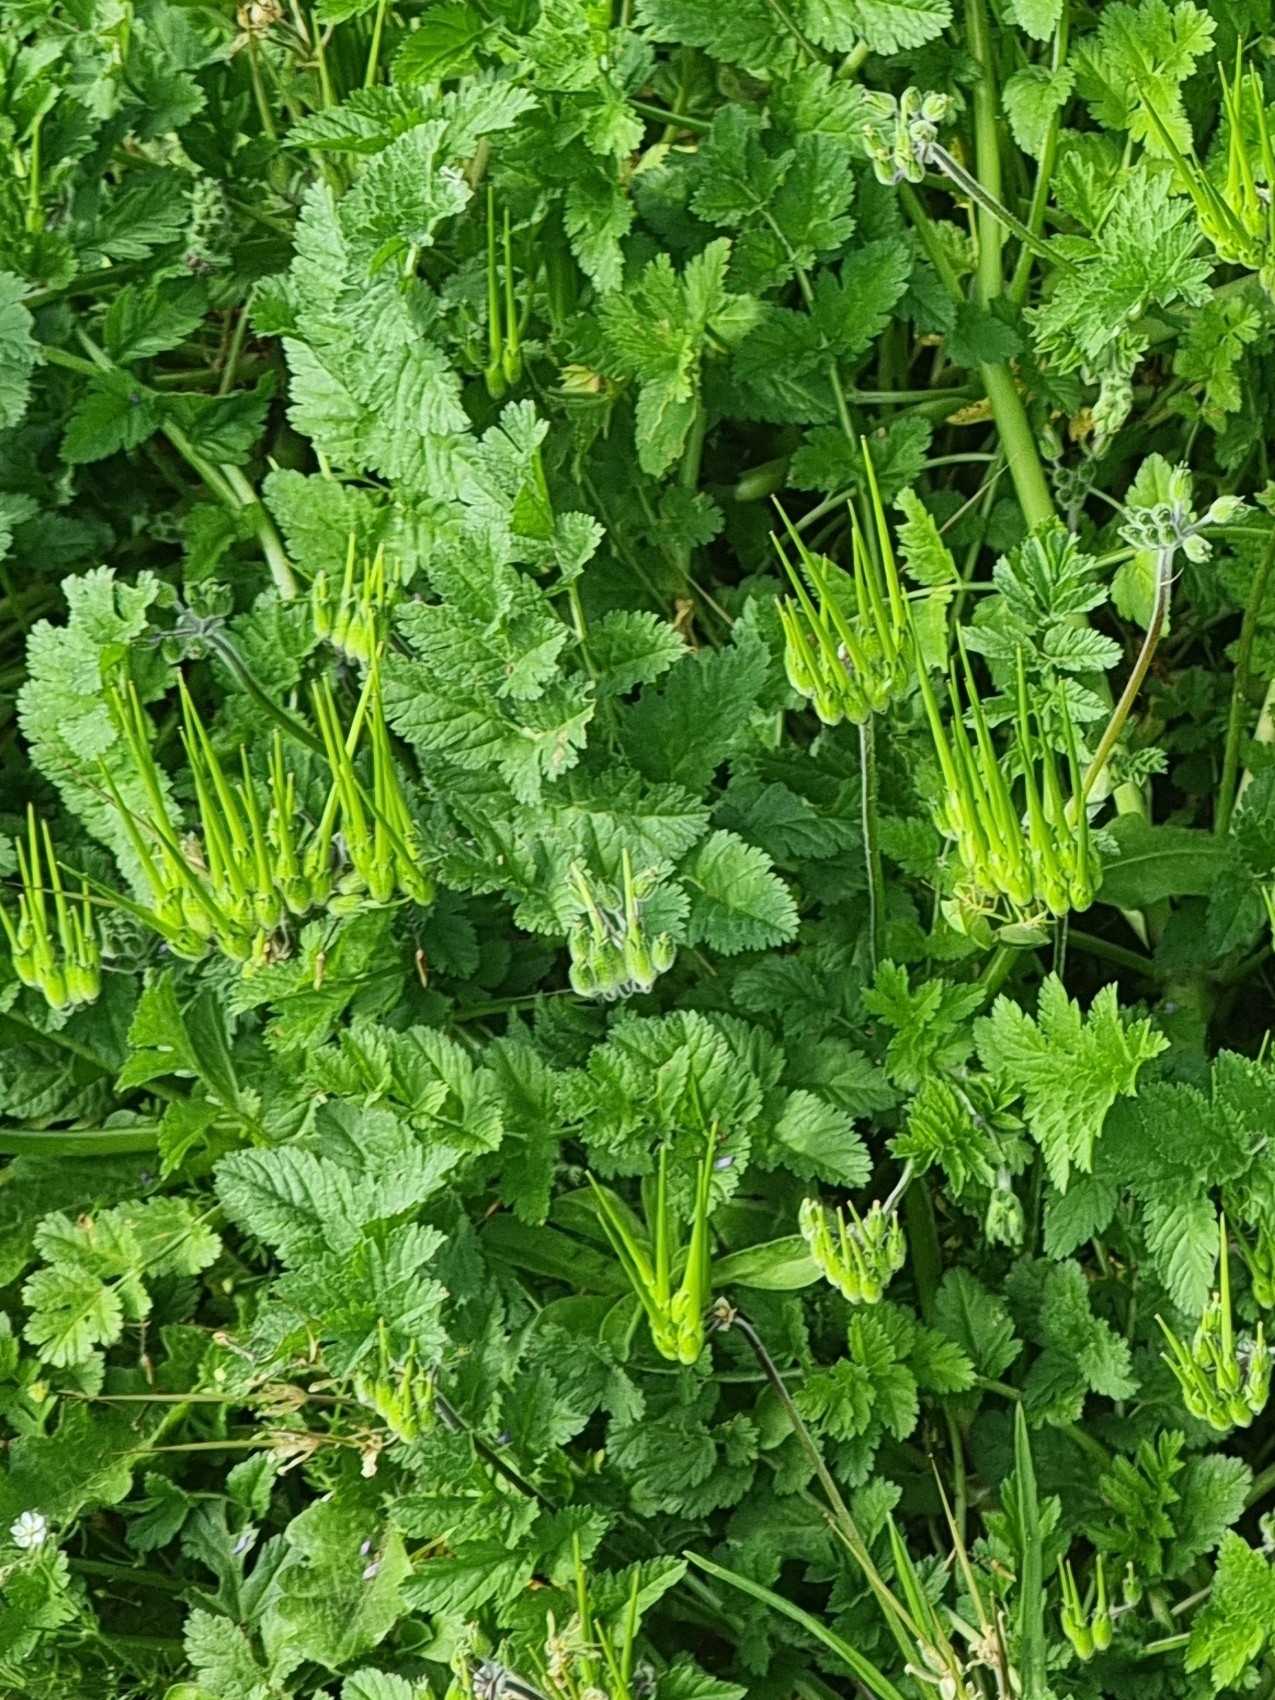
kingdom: Plantae
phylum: Tracheophyta
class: Magnoliopsida
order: Geraniales
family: Geraniaceae
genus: Erodium
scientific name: Erodium moschatum
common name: Musk stork's-bill
